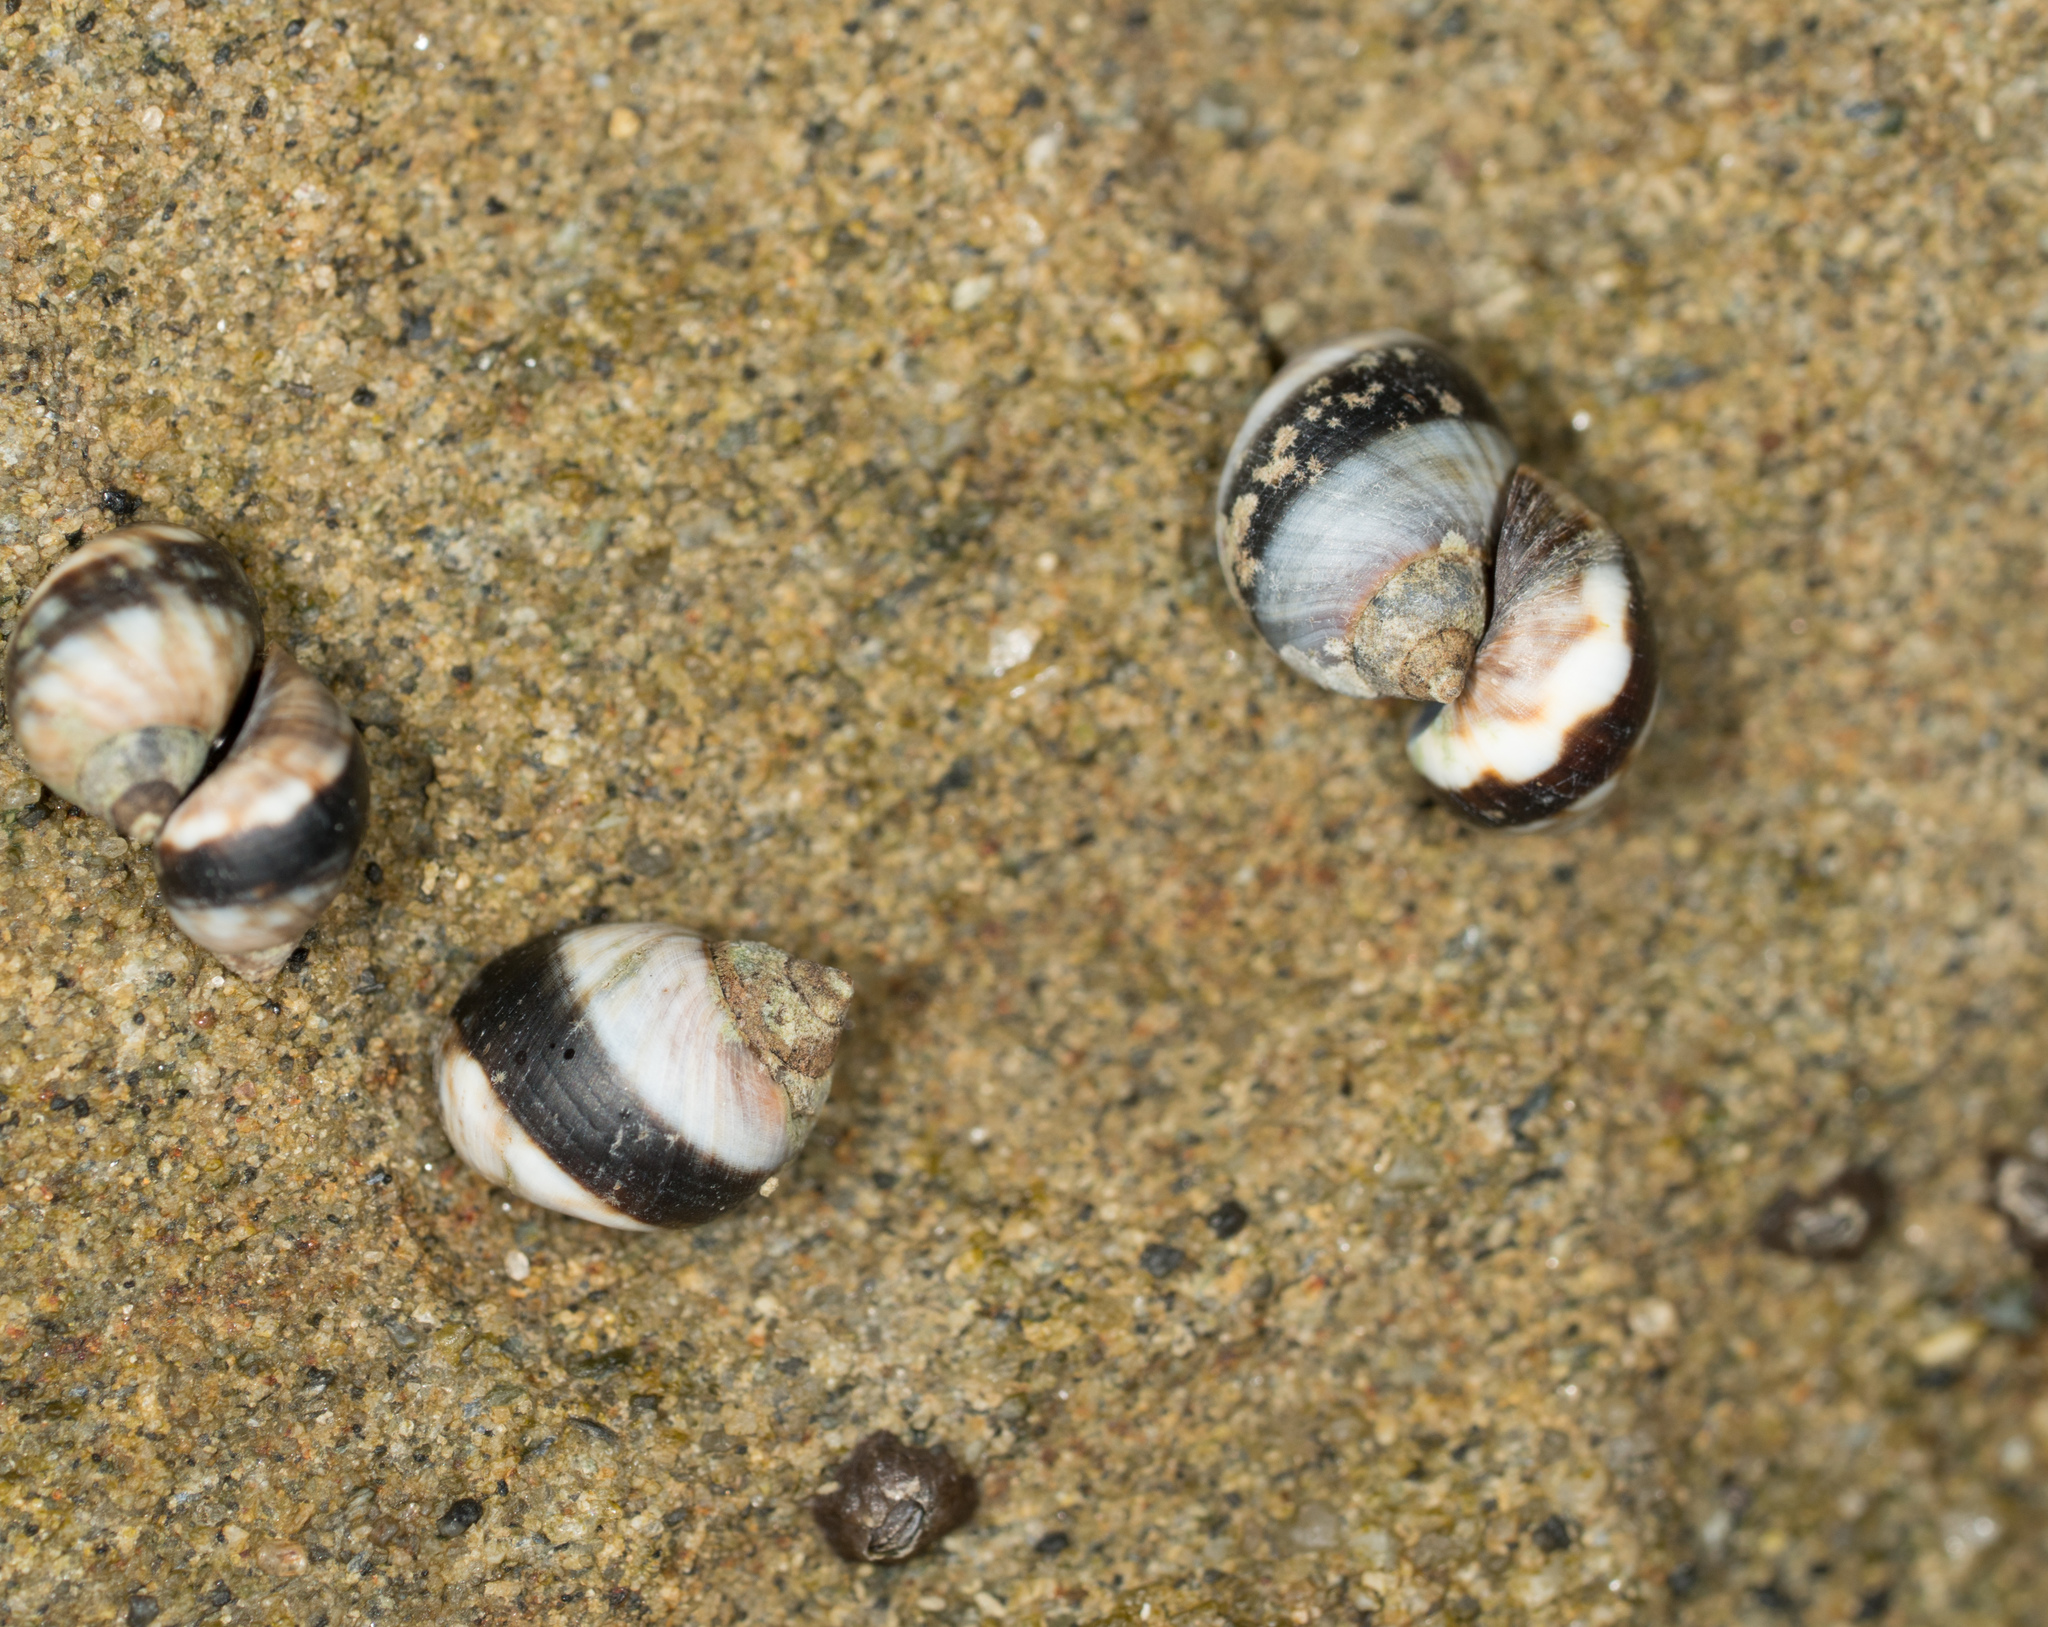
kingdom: Animalia
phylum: Mollusca
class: Gastropoda
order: Littorinimorpha
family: Littorinidae
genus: Littorina
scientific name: Littorina keenae
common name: Eroded periwinkle
